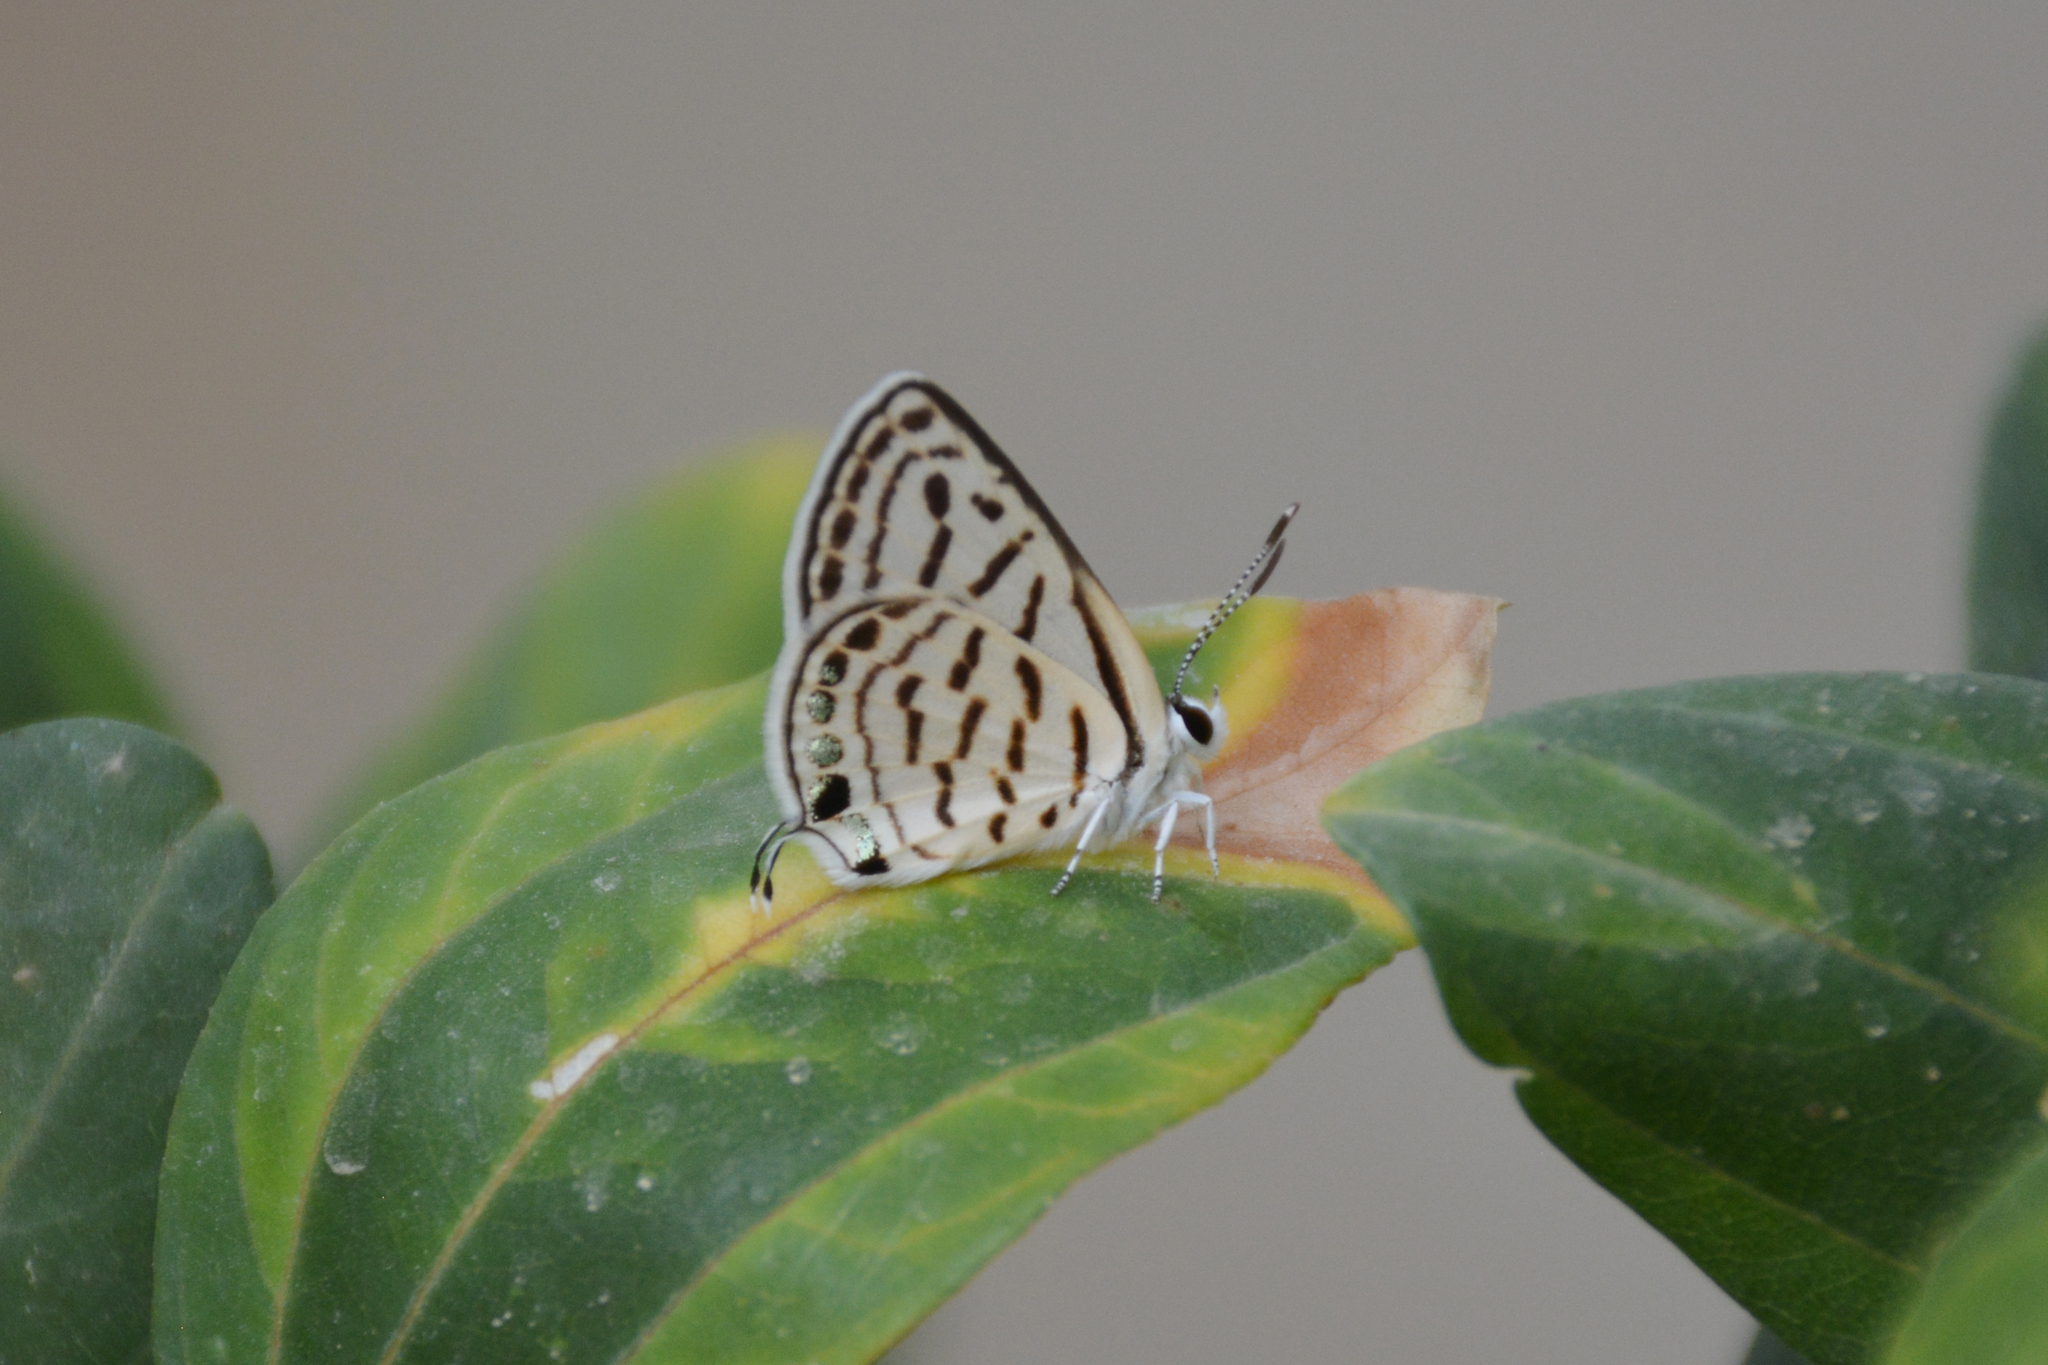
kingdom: Animalia
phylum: Arthropoda
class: Insecta
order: Lepidoptera
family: Lycaenidae
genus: Tarucus
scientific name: Tarucus rosacea
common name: Mediterranean pierrot
